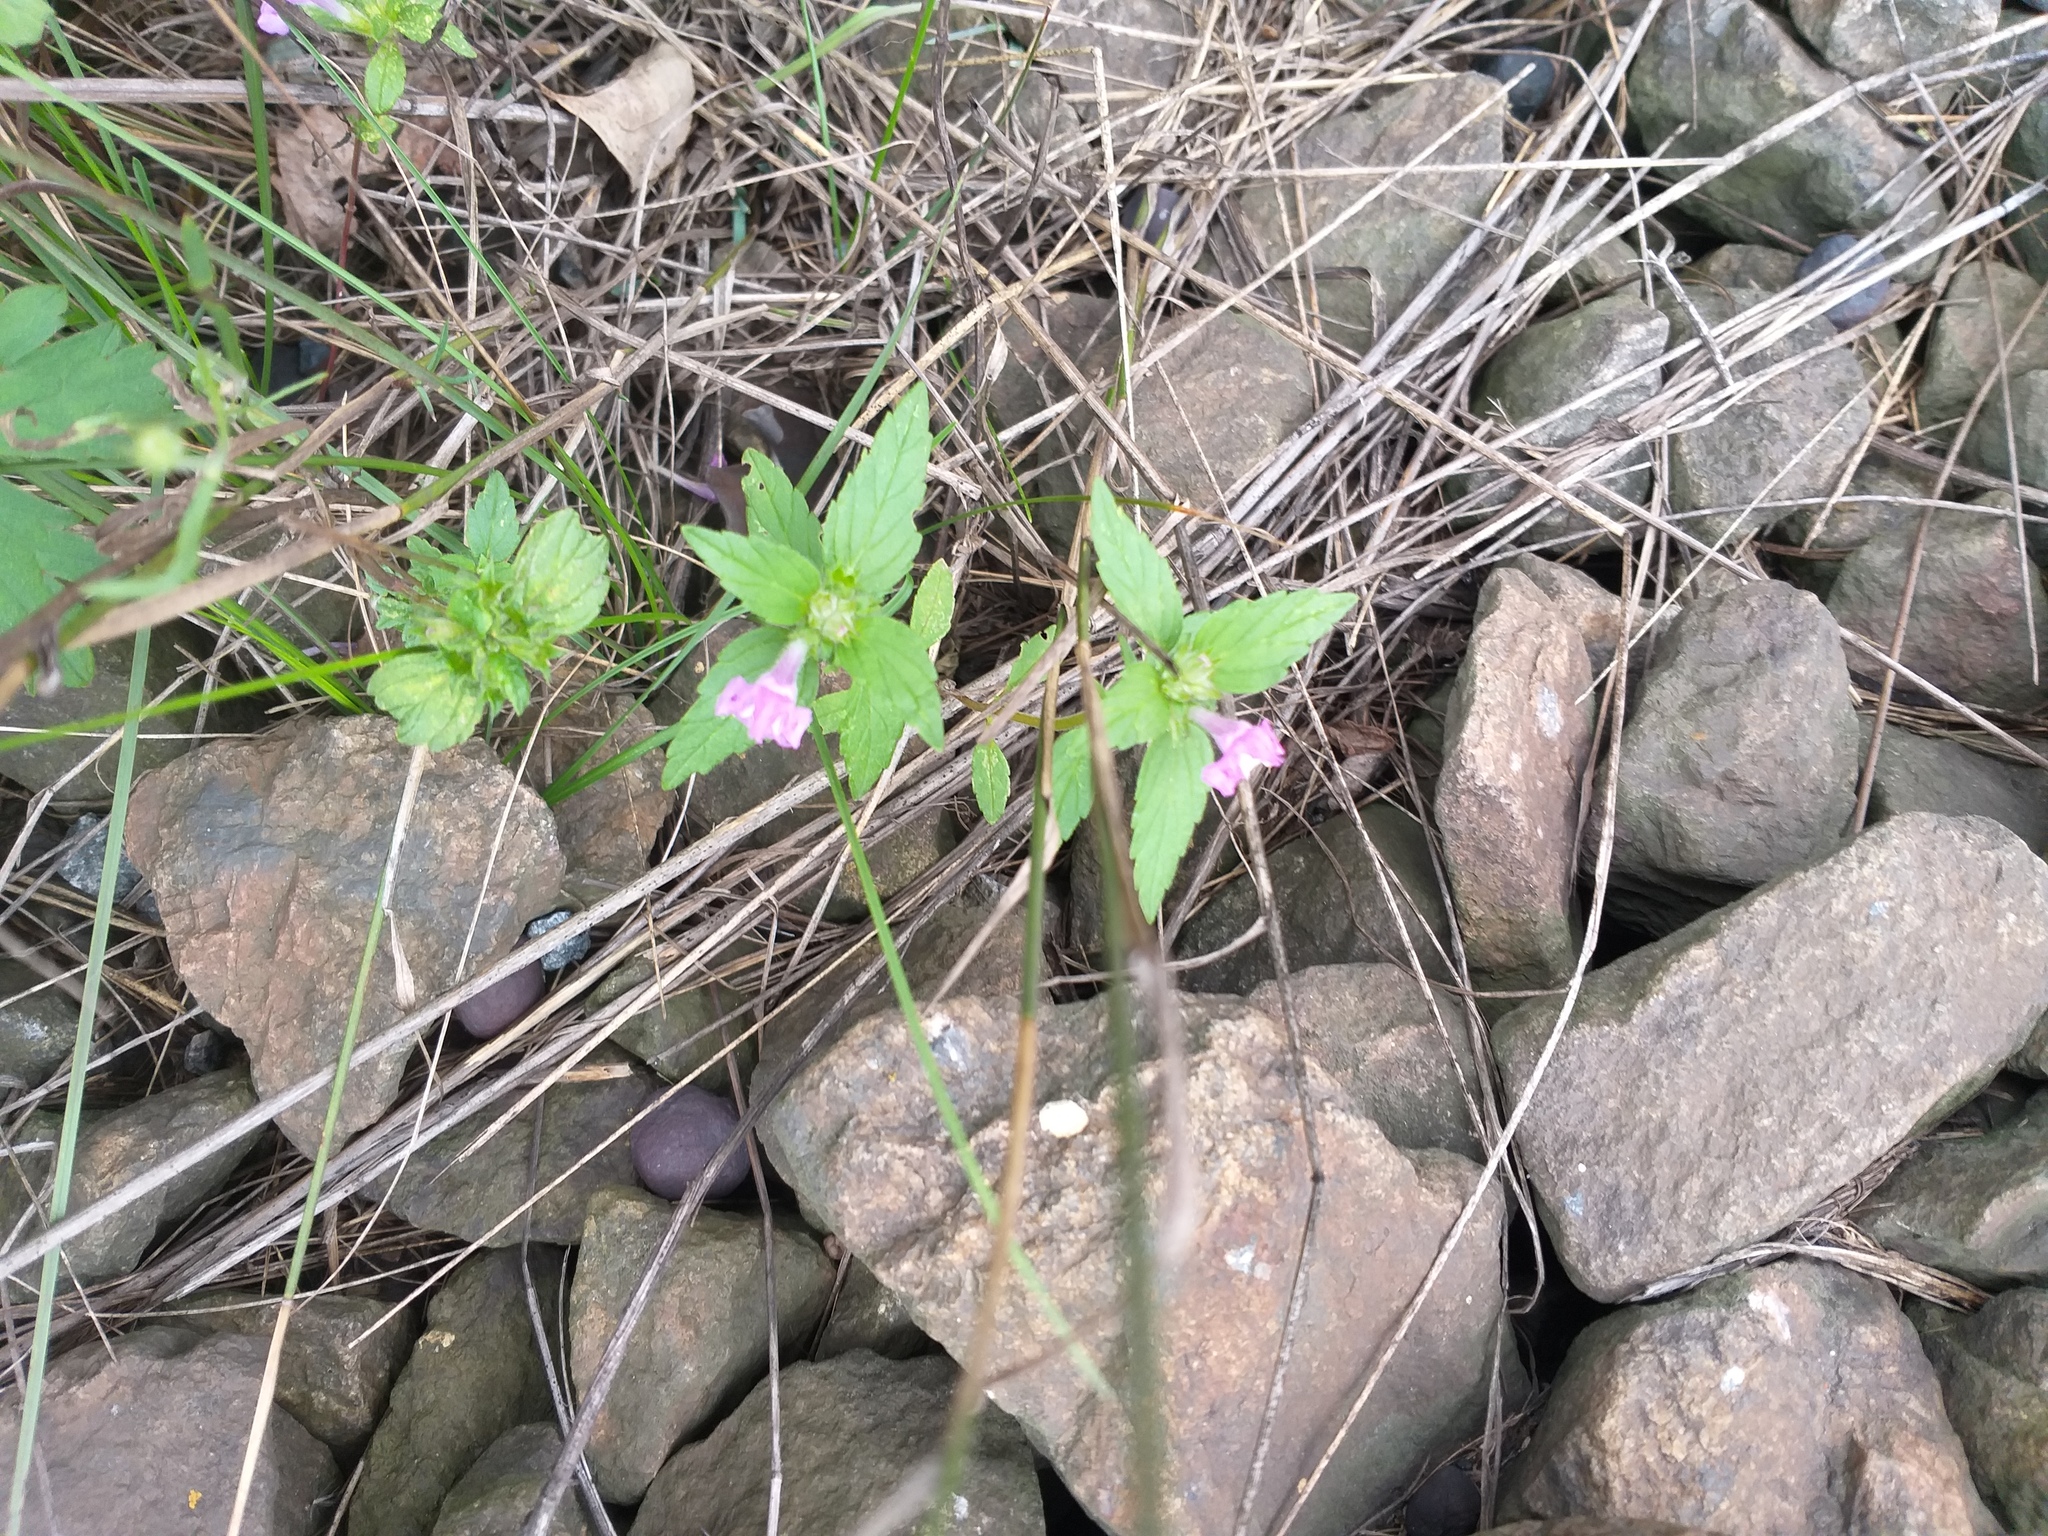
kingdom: Plantae
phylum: Tracheophyta
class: Magnoliopsida
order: Lamiales
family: Lamiaceae
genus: Galeopsis
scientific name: Galeopsis ladanum
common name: Broad-leaved hemp-nettle
